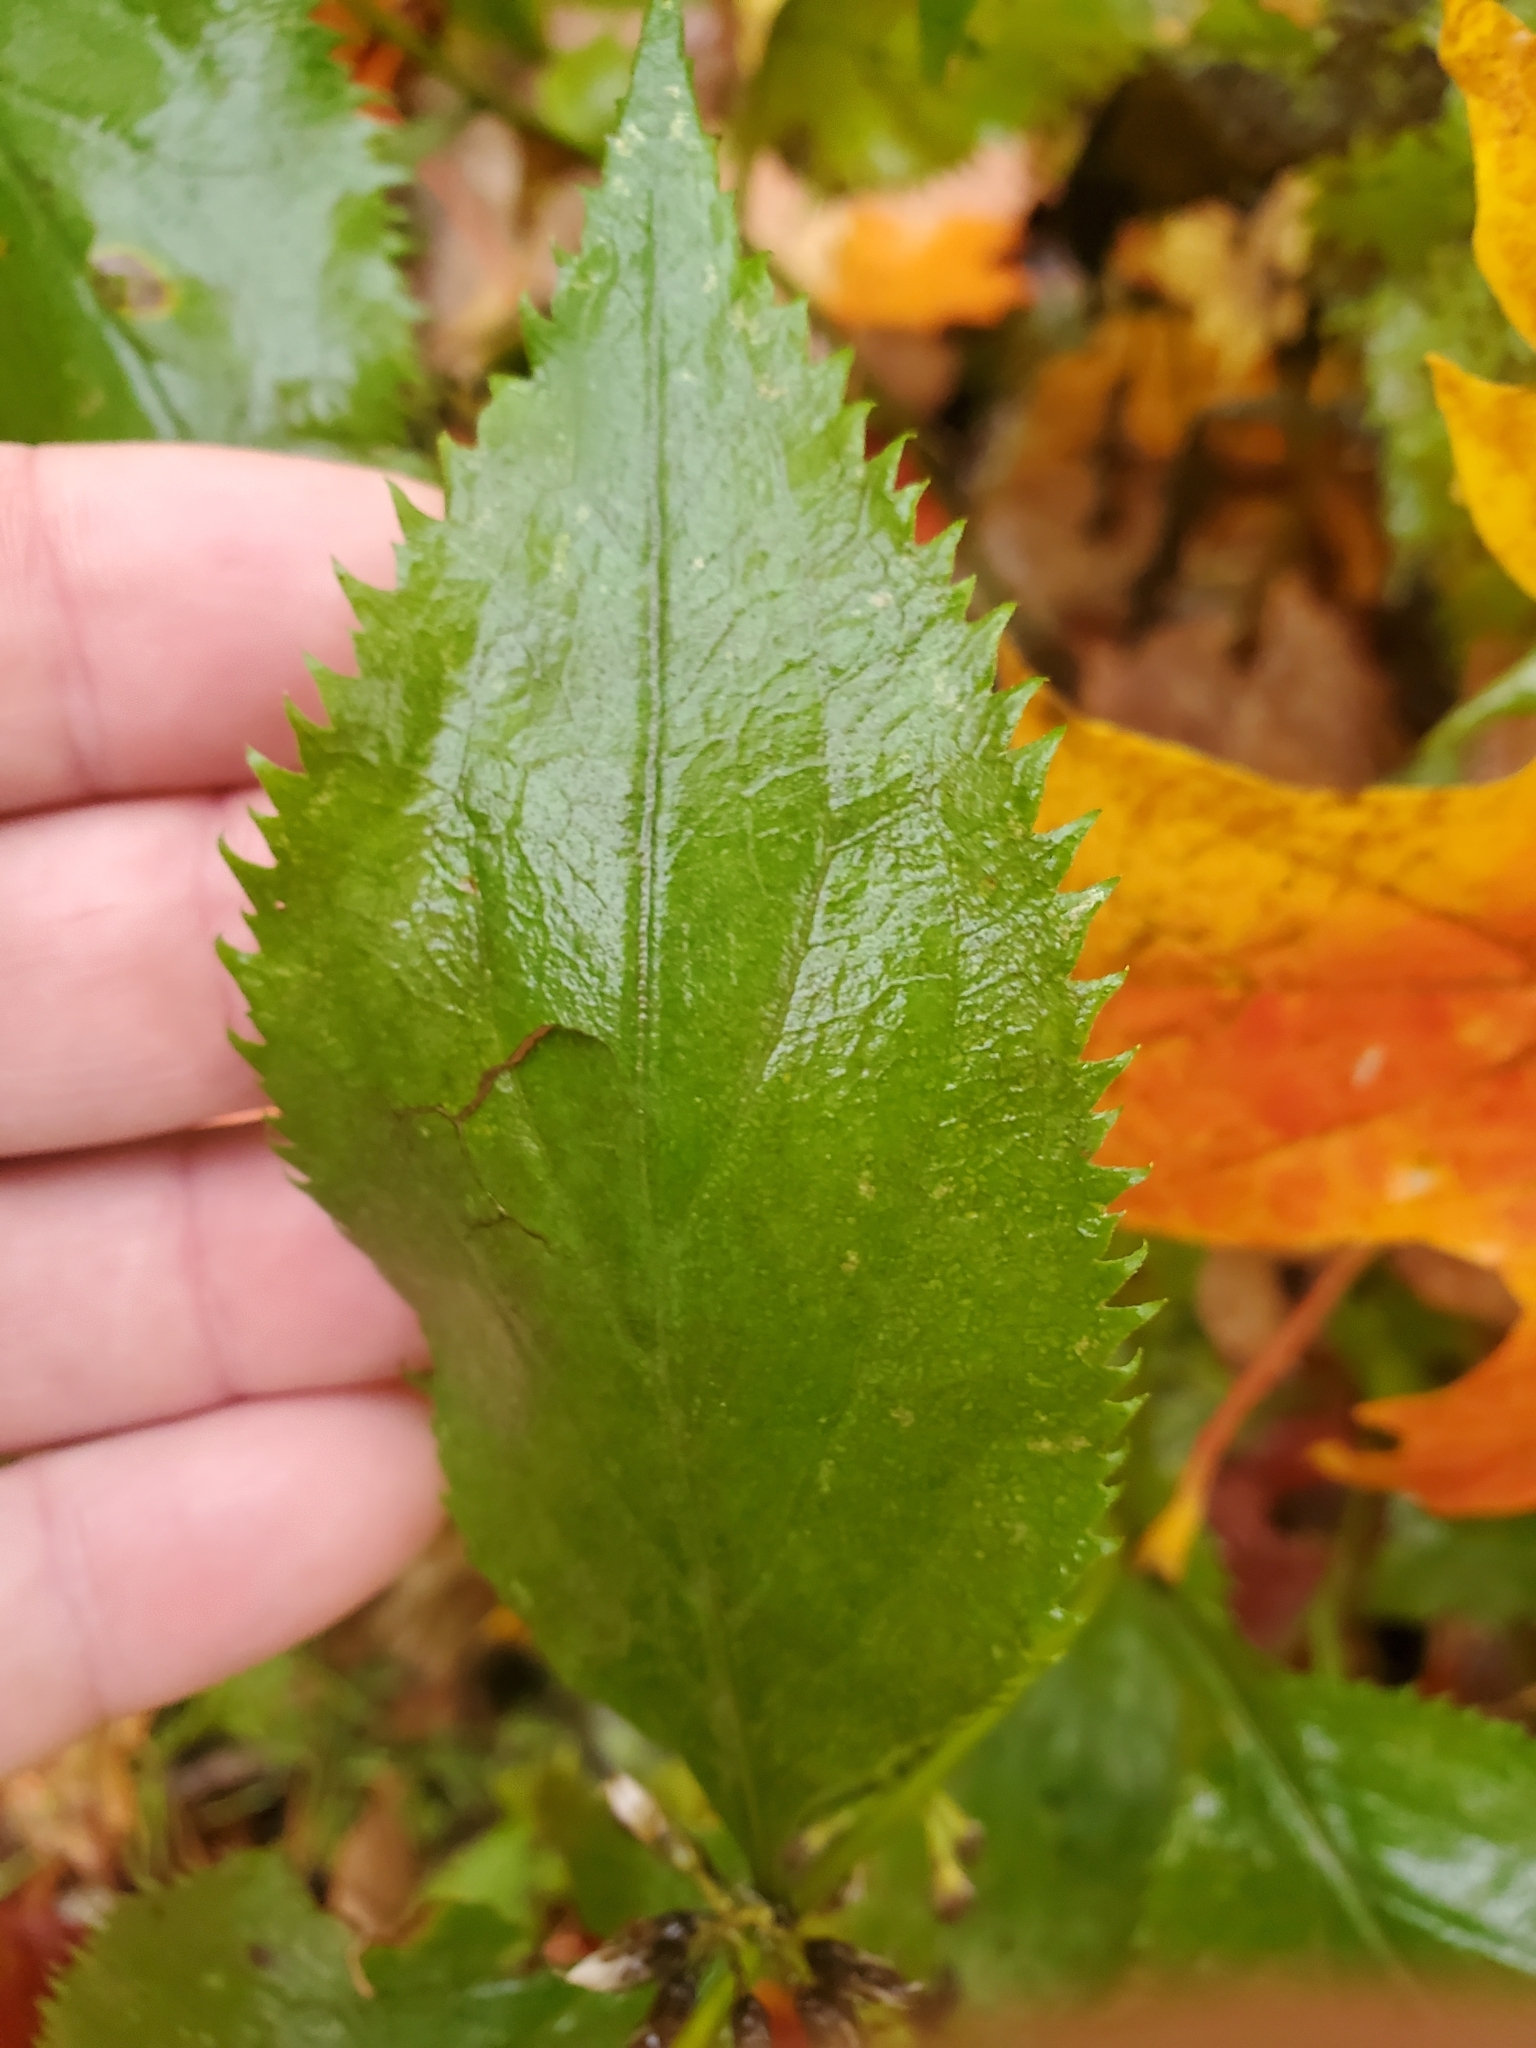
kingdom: Plantae
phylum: Tracheophyta
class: Magnoliopsida
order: Asterales
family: Asteraceae
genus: Solidago
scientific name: Solidago flexicaulis
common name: Zig-zag goldenrod
